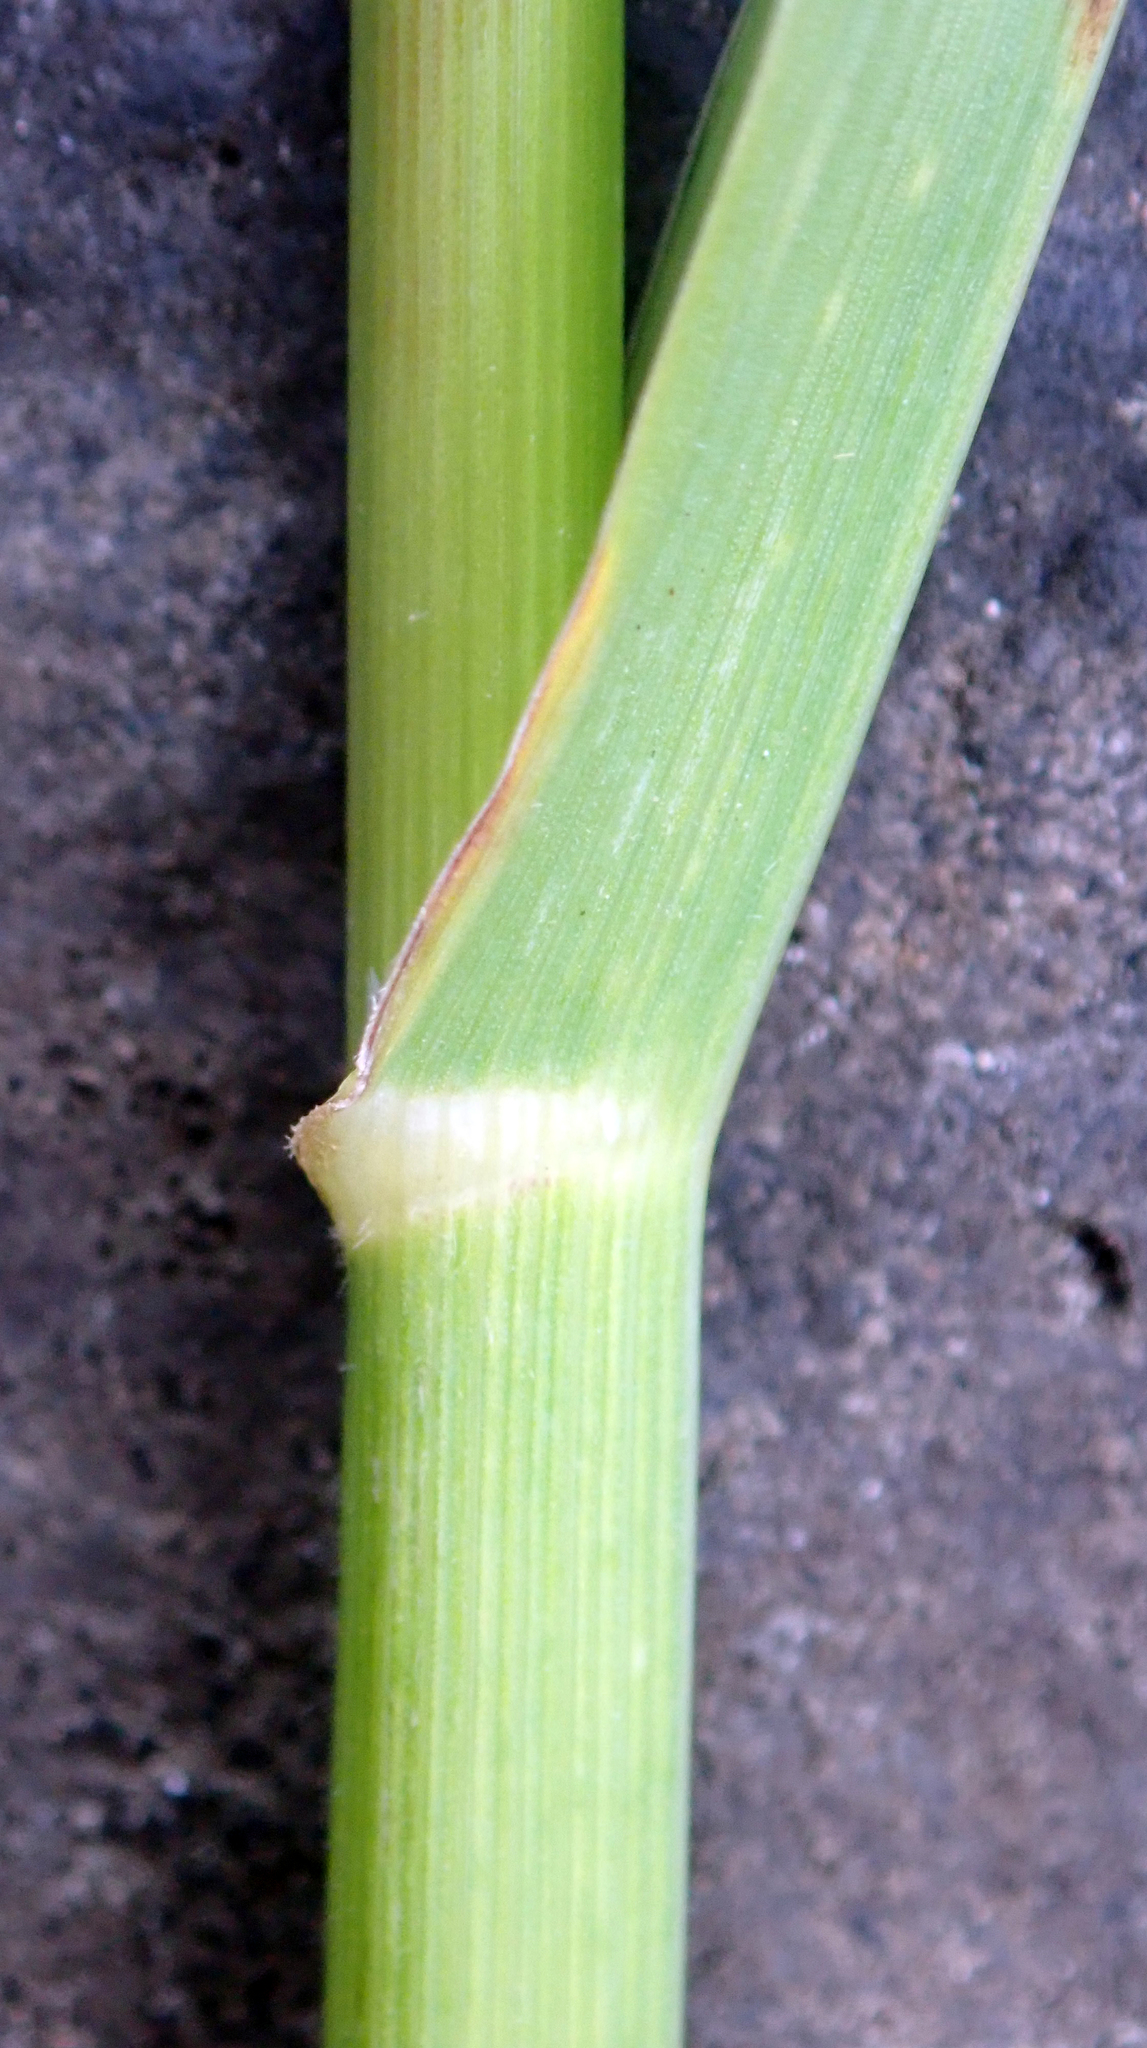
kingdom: Plantae
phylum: Tracheophyta
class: Liliopsida
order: Poales
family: Poaceae
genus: Bromus
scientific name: Bromus catharticus
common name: Rescuegrass
